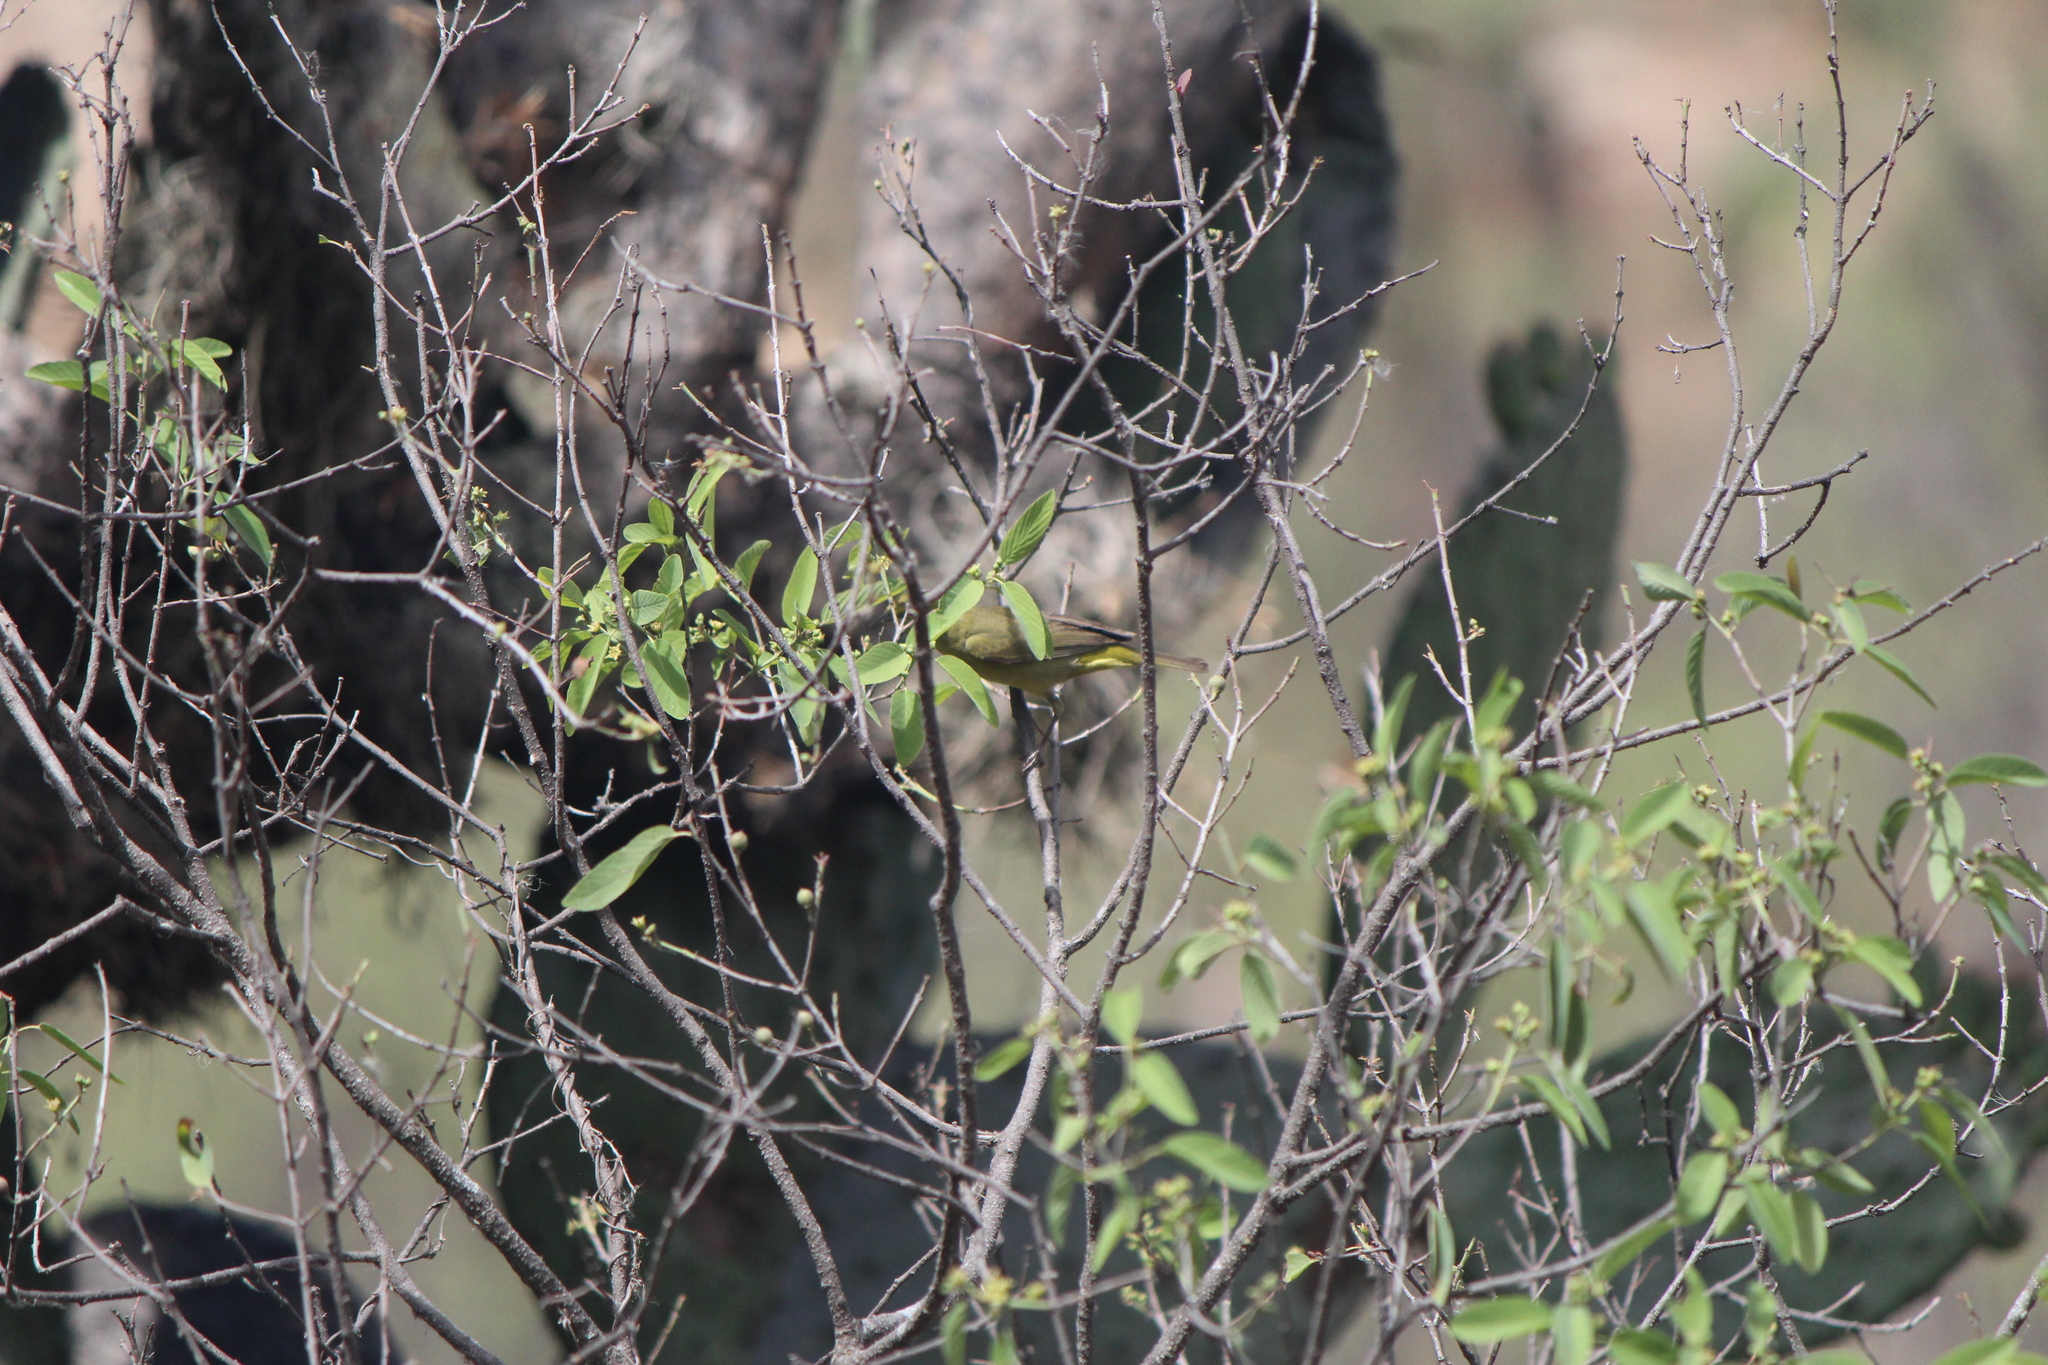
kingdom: Animalia
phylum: Chordata
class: Aves
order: Passeriformes
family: Parulidae
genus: Leiothlypis
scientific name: Leiothlypis celata
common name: Orange-crowned warbler
